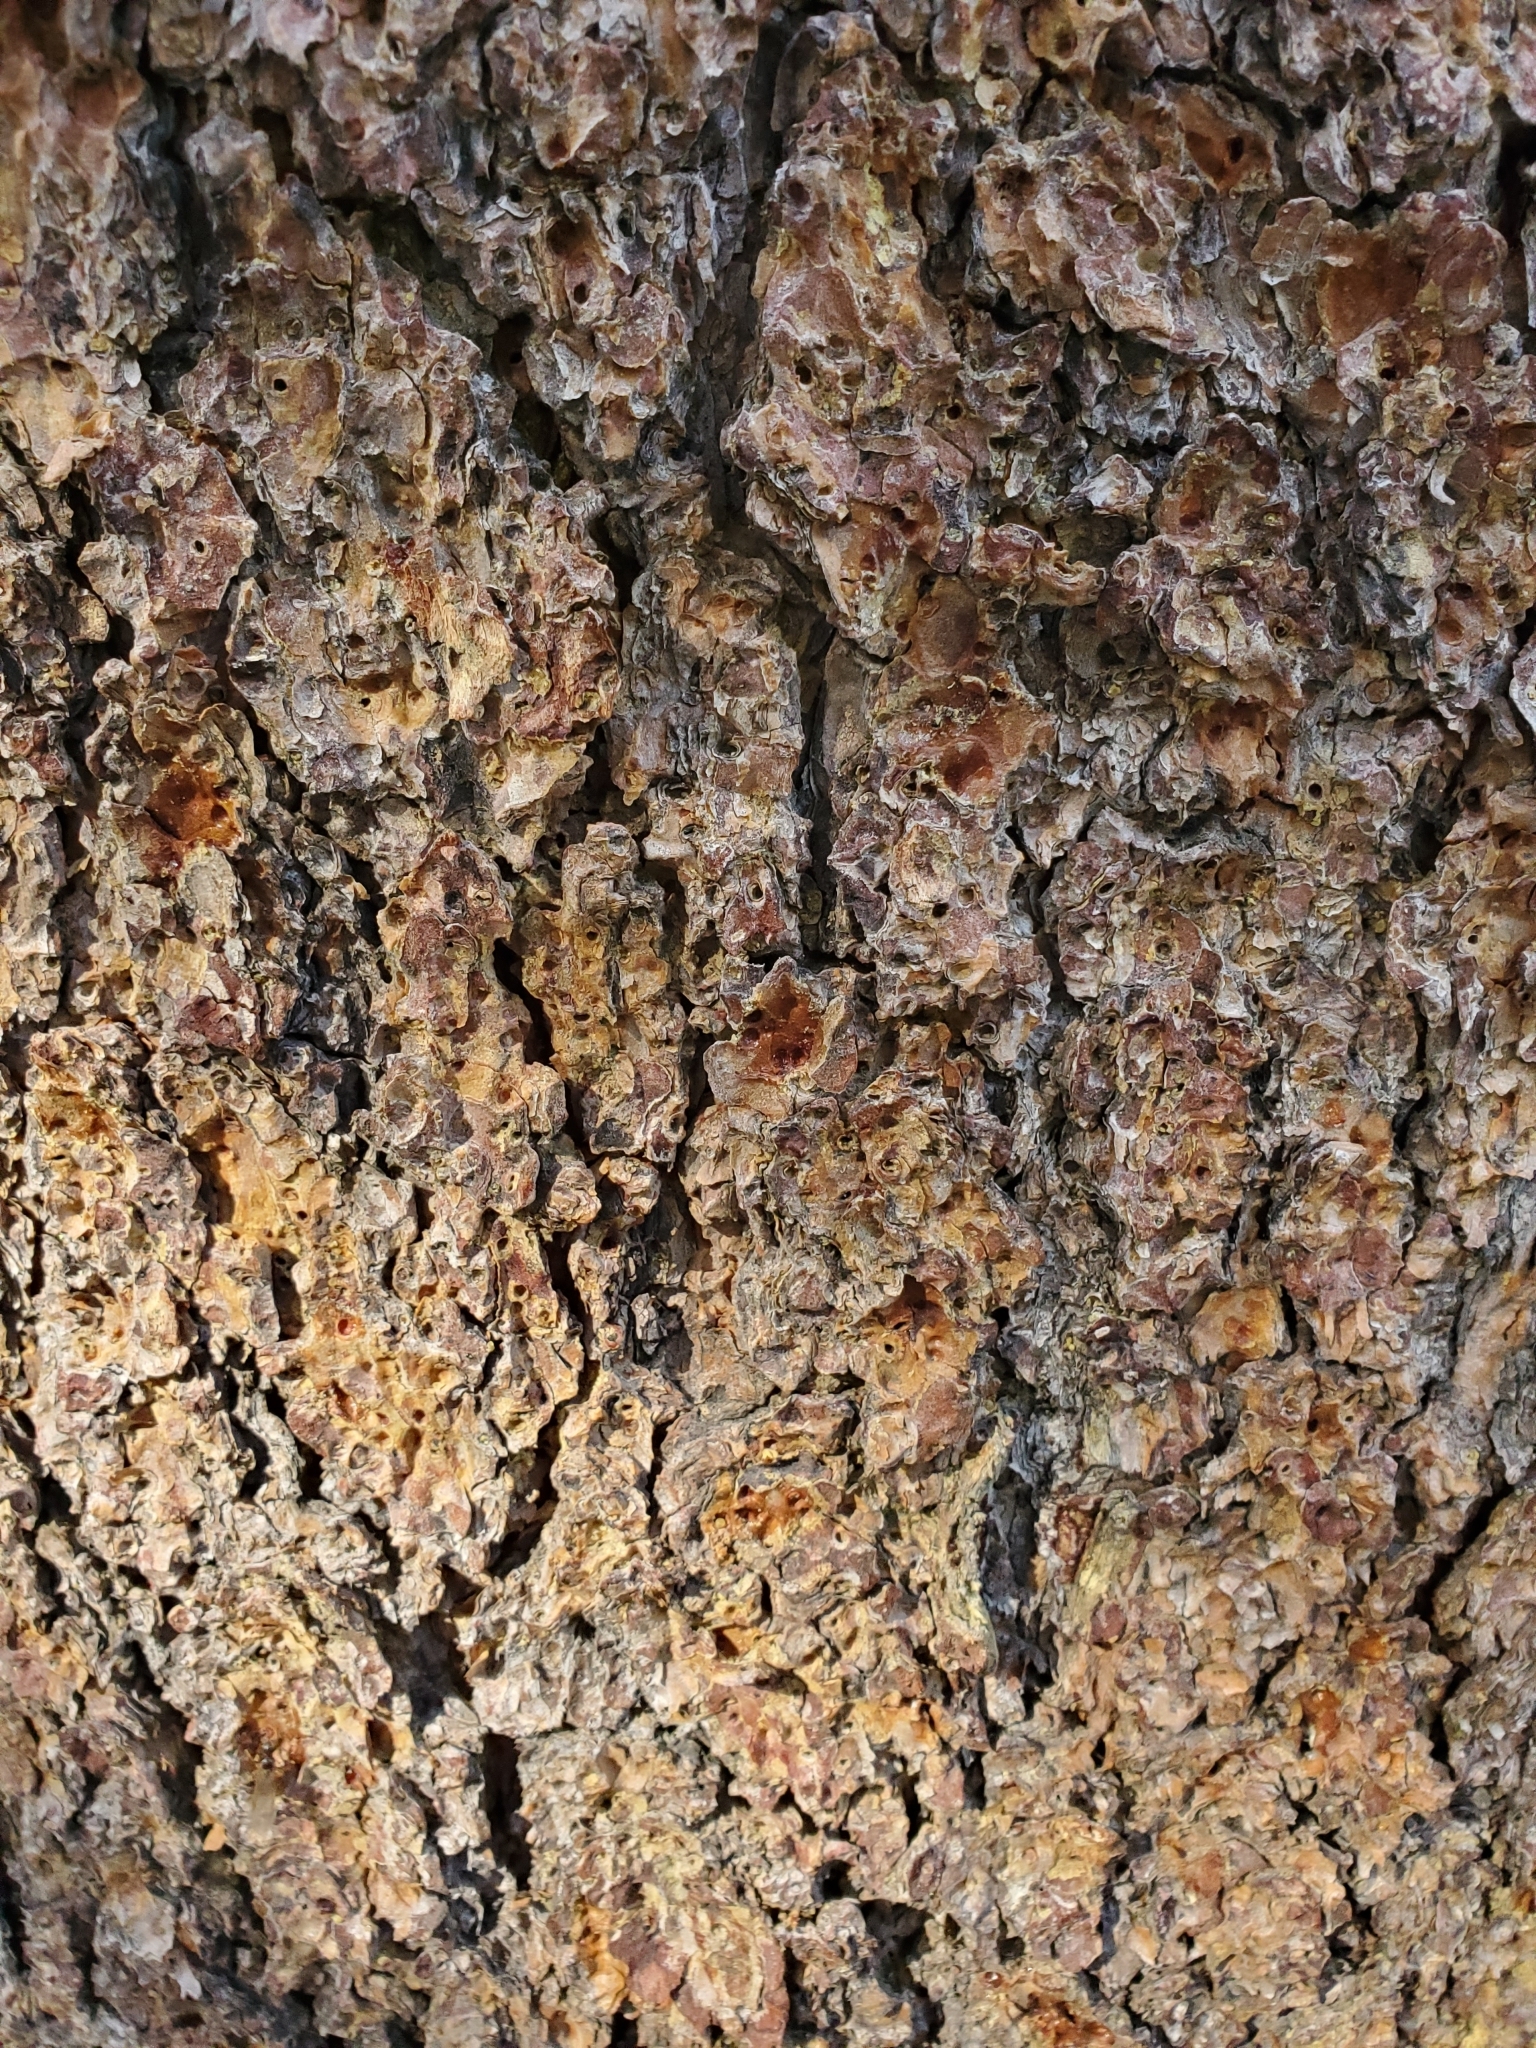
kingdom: Plantae
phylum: Tracheophyta
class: Pinopsida
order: Pinales
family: Pinaceae
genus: Pinus
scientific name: Pinus contorta
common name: Lodgepole pine
